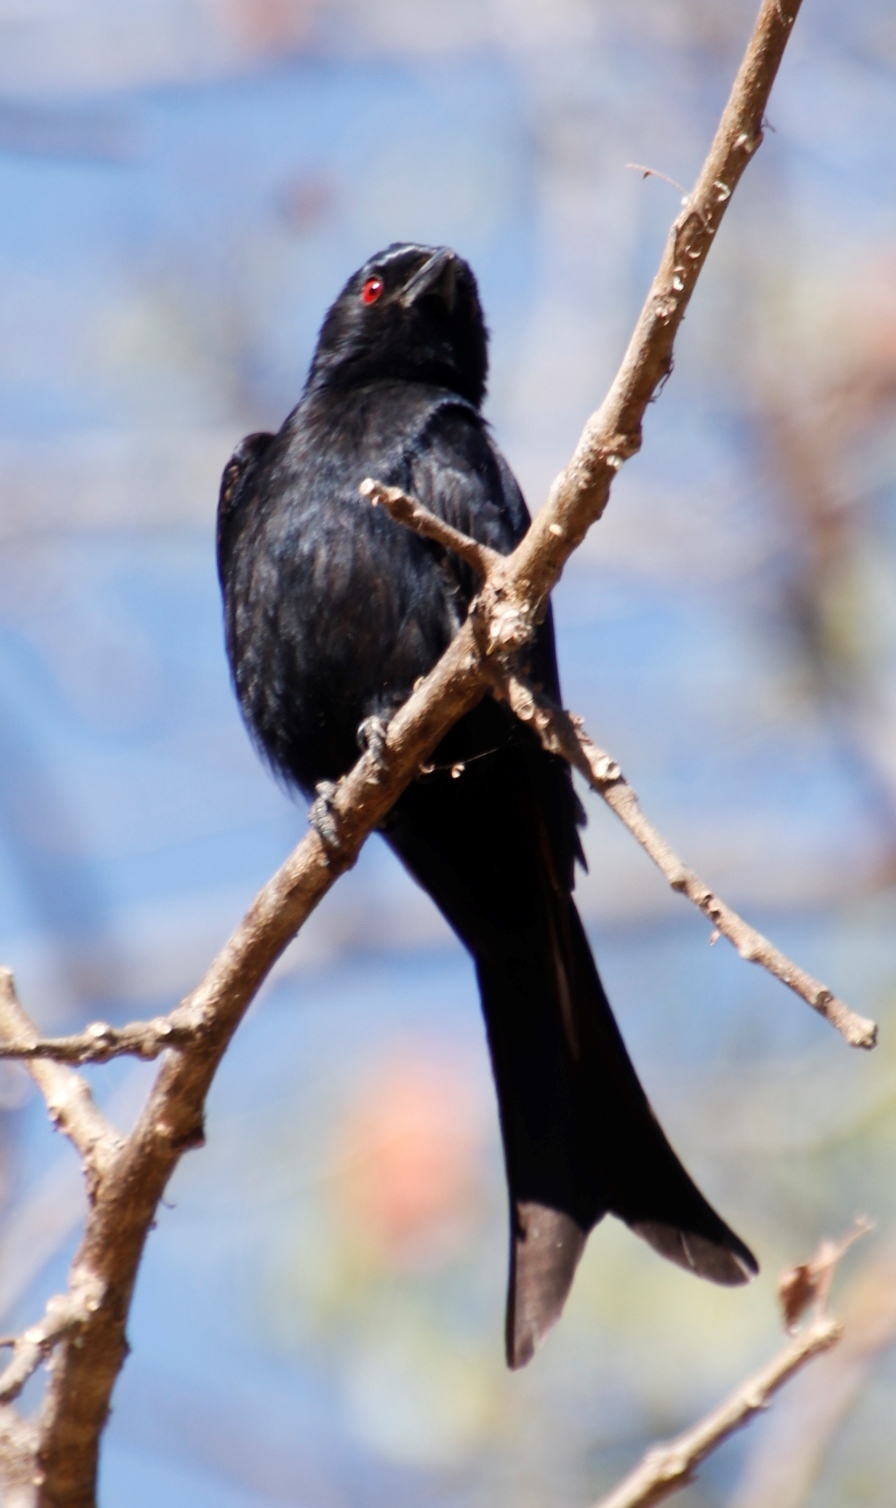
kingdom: Animalia
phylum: Chordata
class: Aves
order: Passeriformes
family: Dicruridae
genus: Dicrurus
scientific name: Dicrurus adsimilis
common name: Fork-tailed drongo
